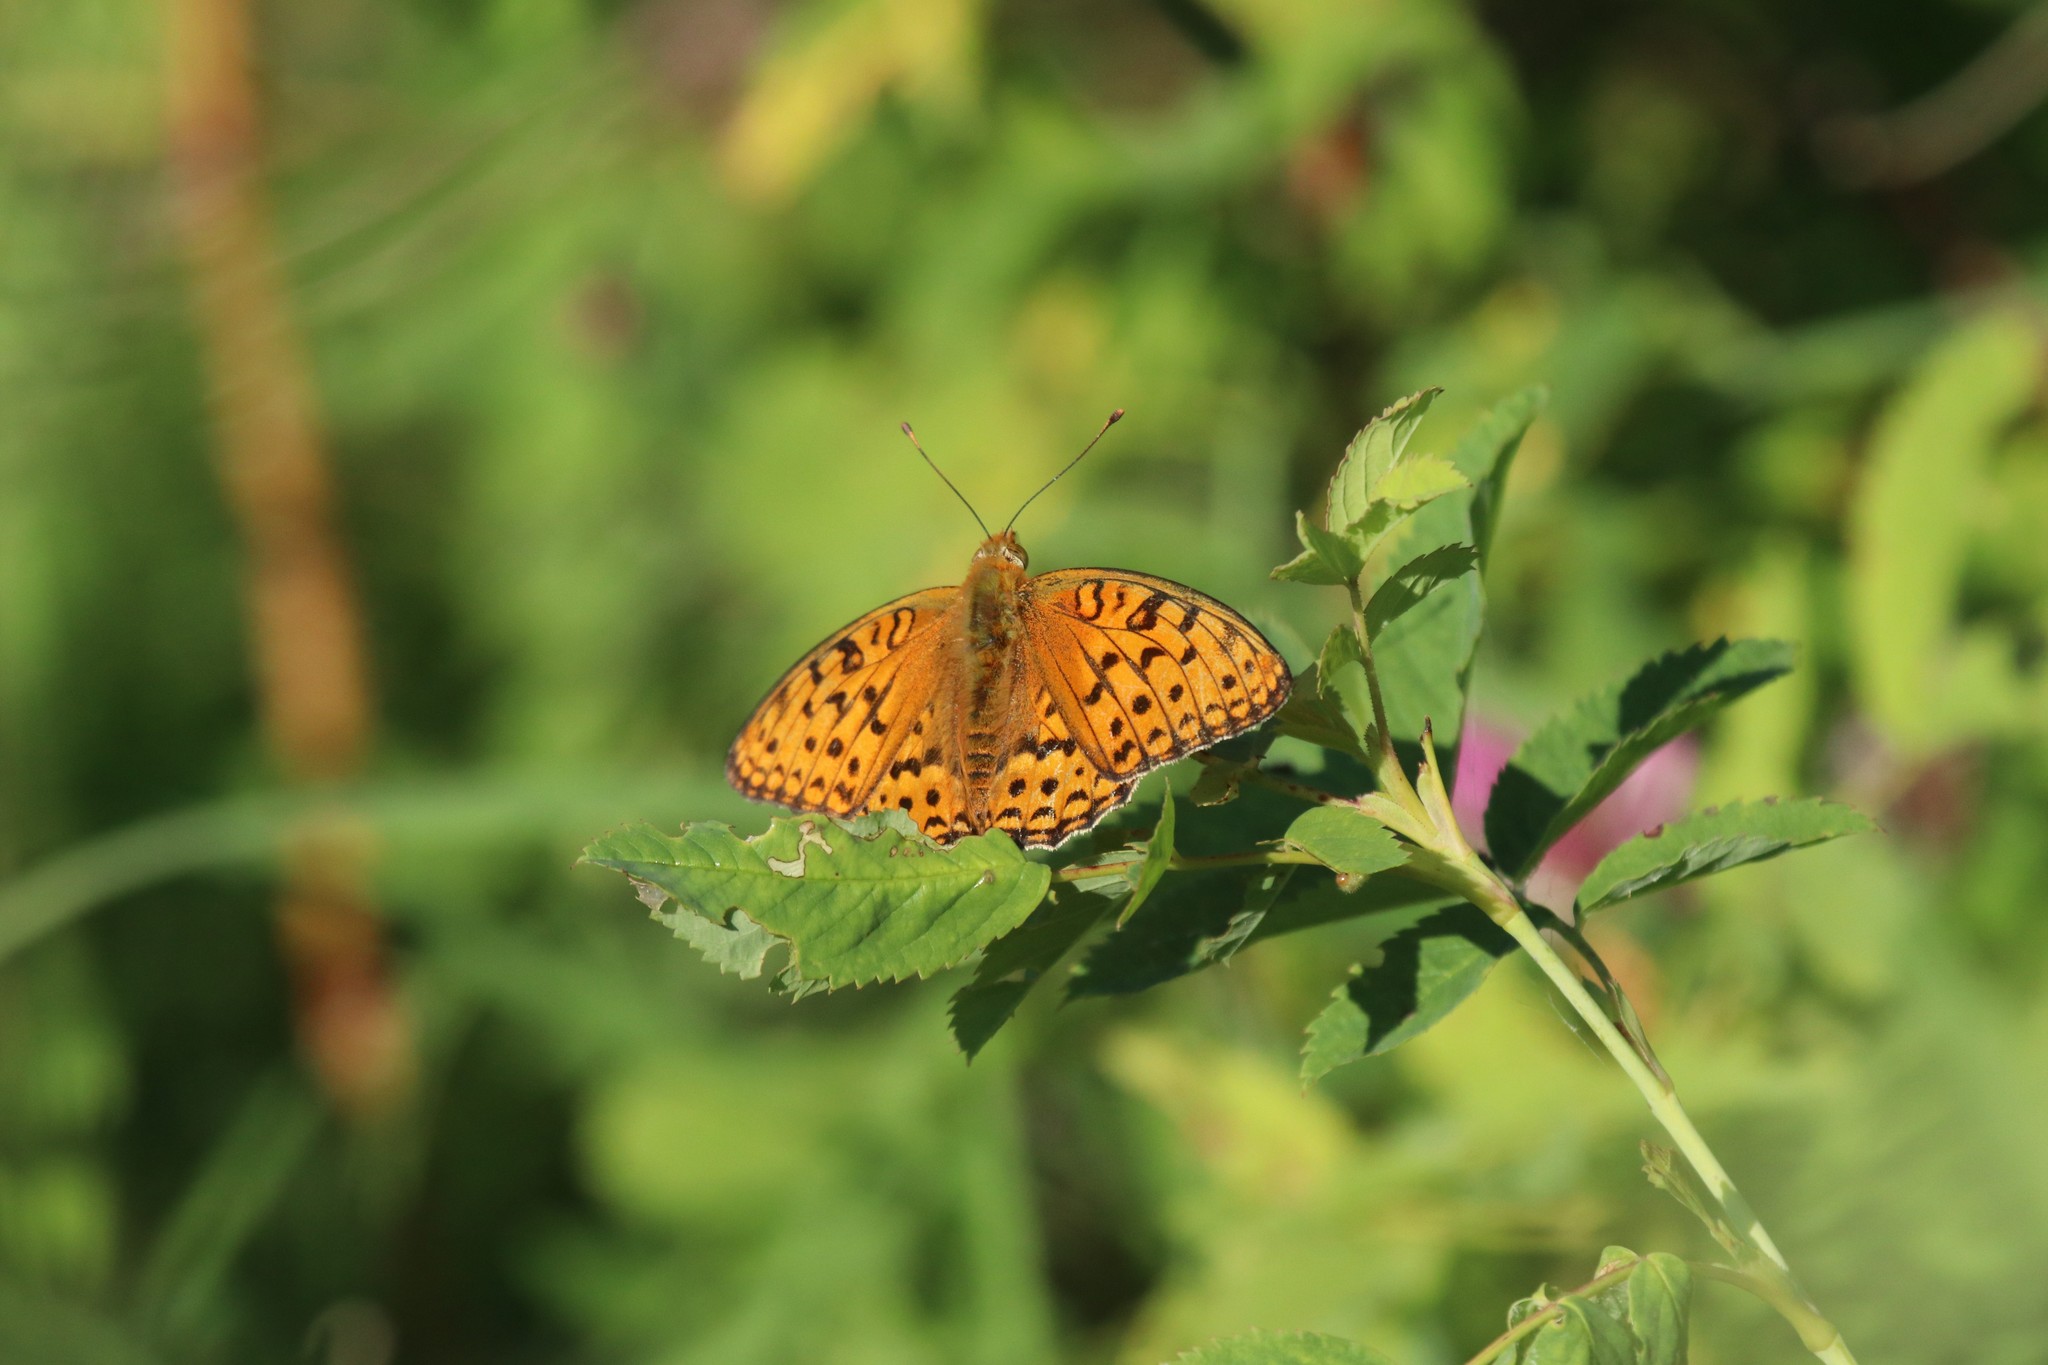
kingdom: Animalia
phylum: Arthropoda
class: Insecta
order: Lepidoptera
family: Nymphalidae
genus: Fabriciana
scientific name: Fabriciana adippe
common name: High brown fritillary
